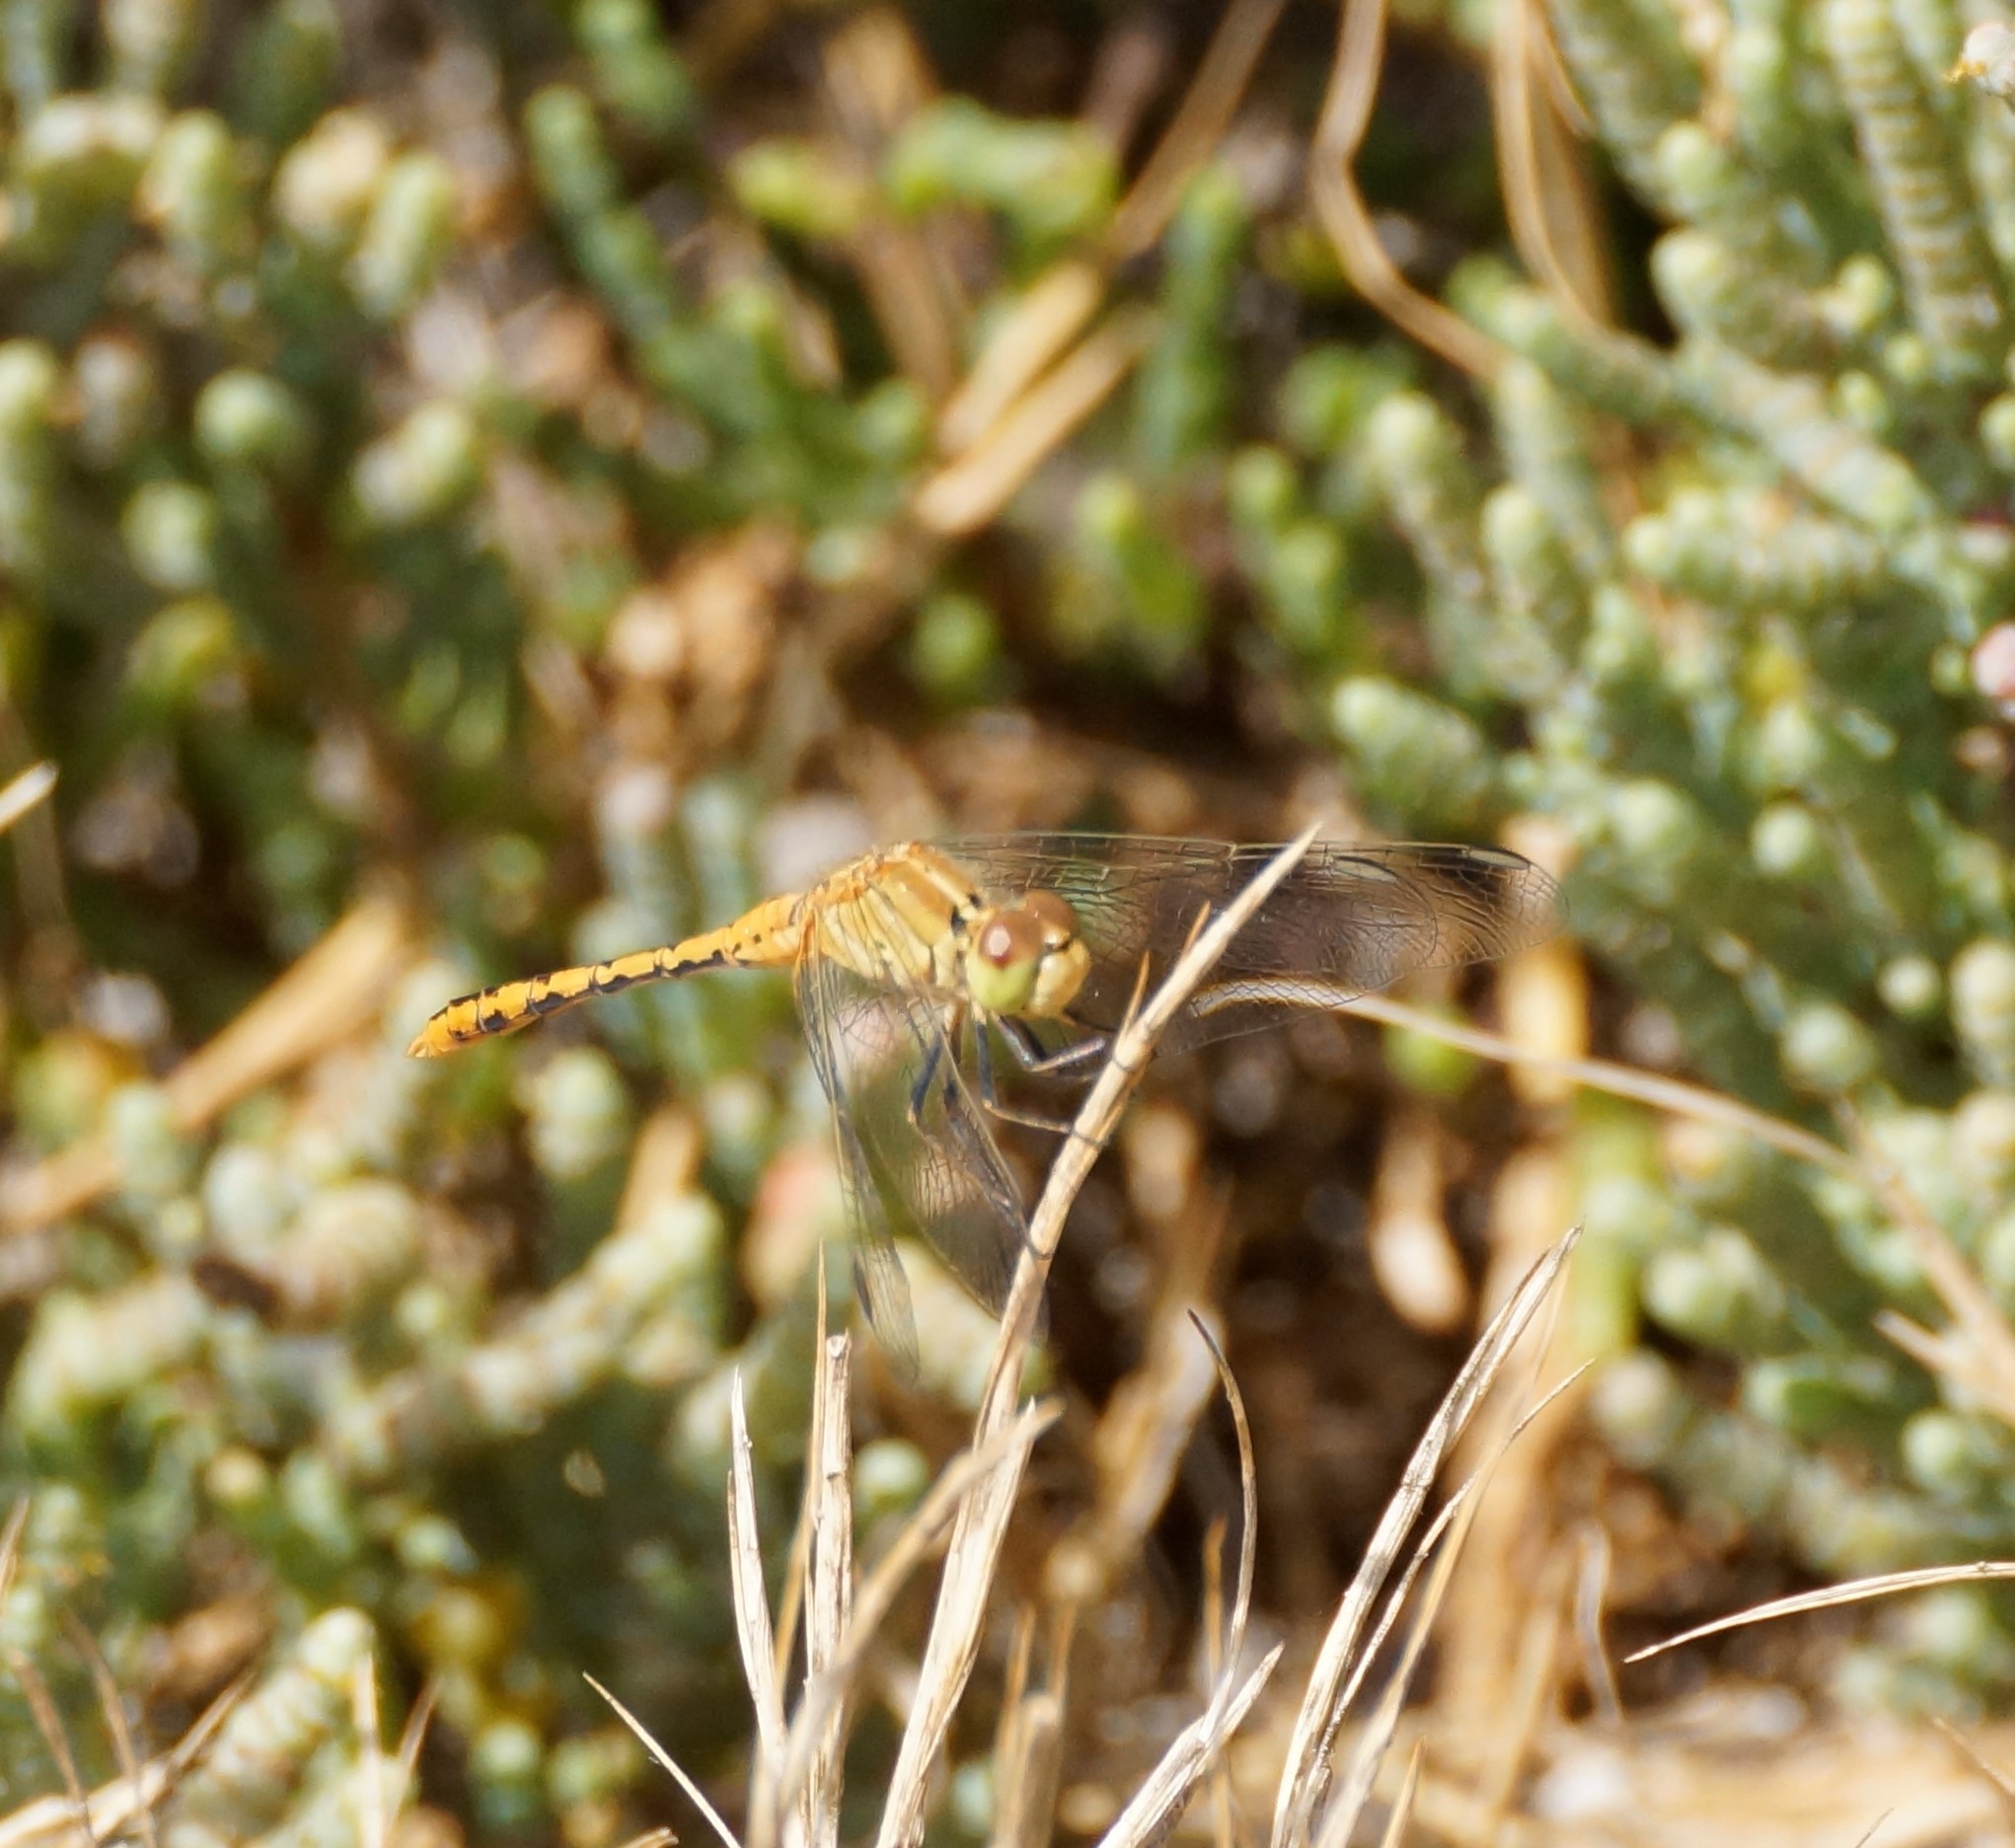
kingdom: Animalia
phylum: Arthropoda
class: Insecta
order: Odonata
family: Libellulidae
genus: Diplacodes
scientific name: Diplacodes bipunctata
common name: Red percher dragonfly
